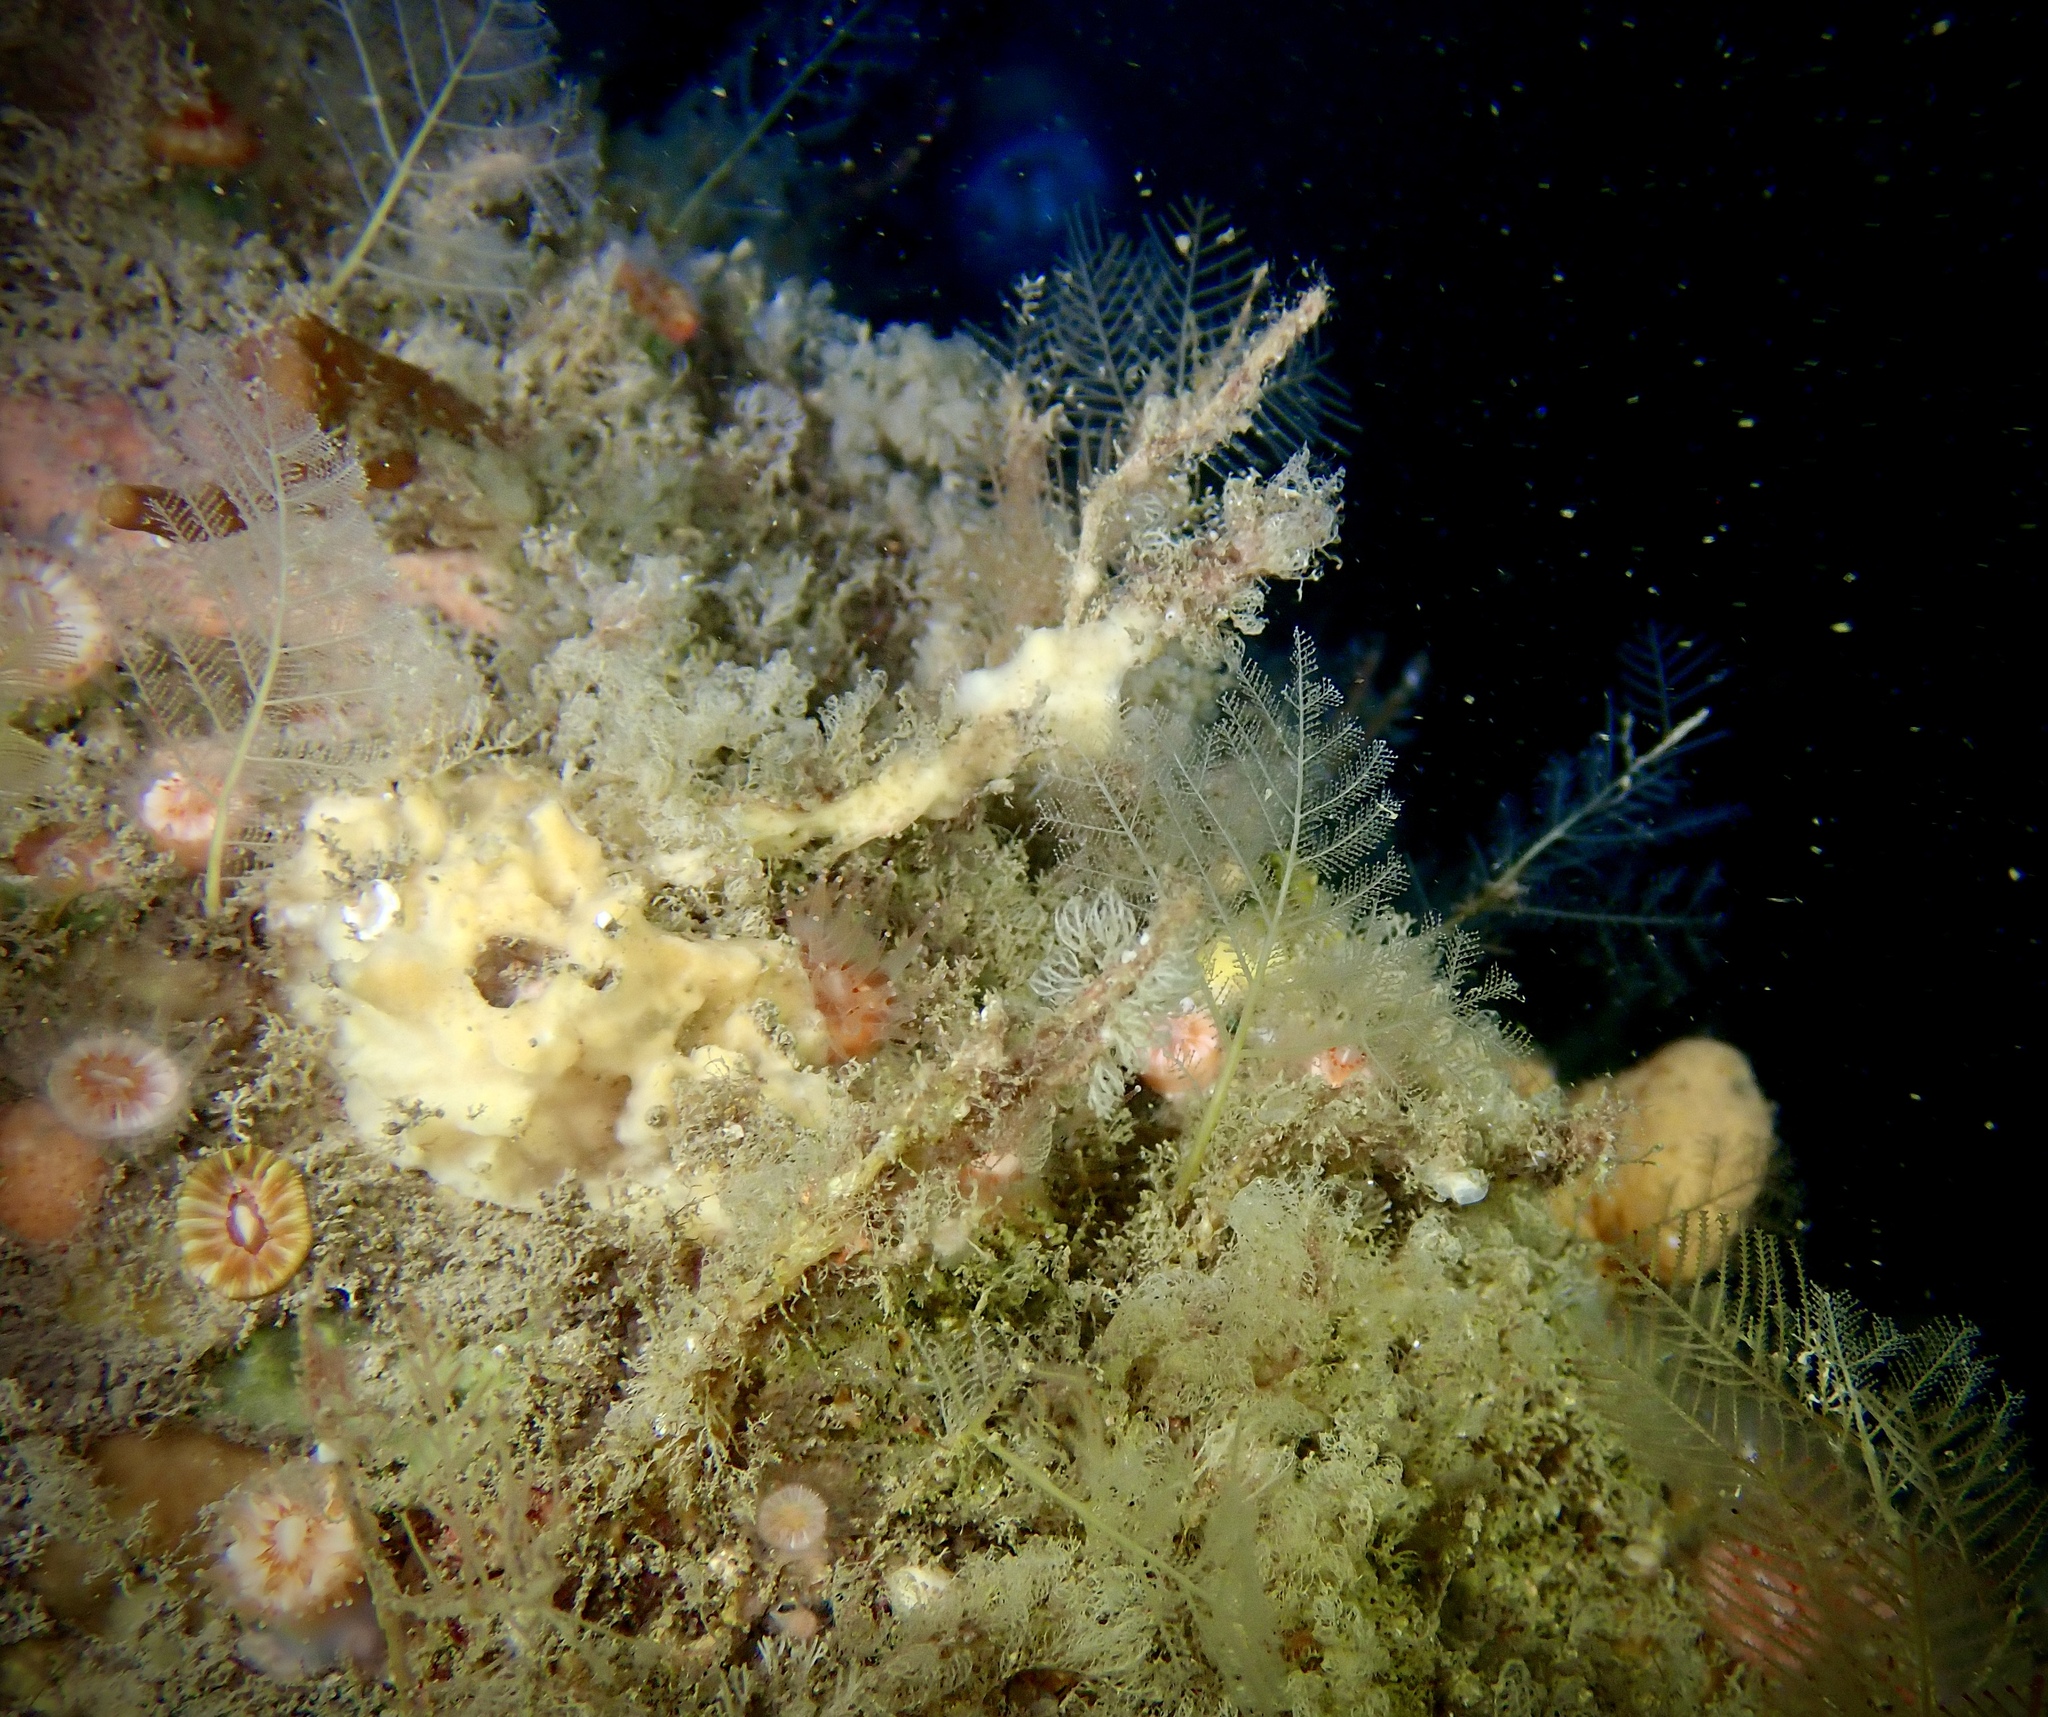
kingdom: Animalia
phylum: Cnidaria
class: Hydrozoa
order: Leptothecata
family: Halopterididae
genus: Polyplumaria
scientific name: Polyplumaria flabellata
